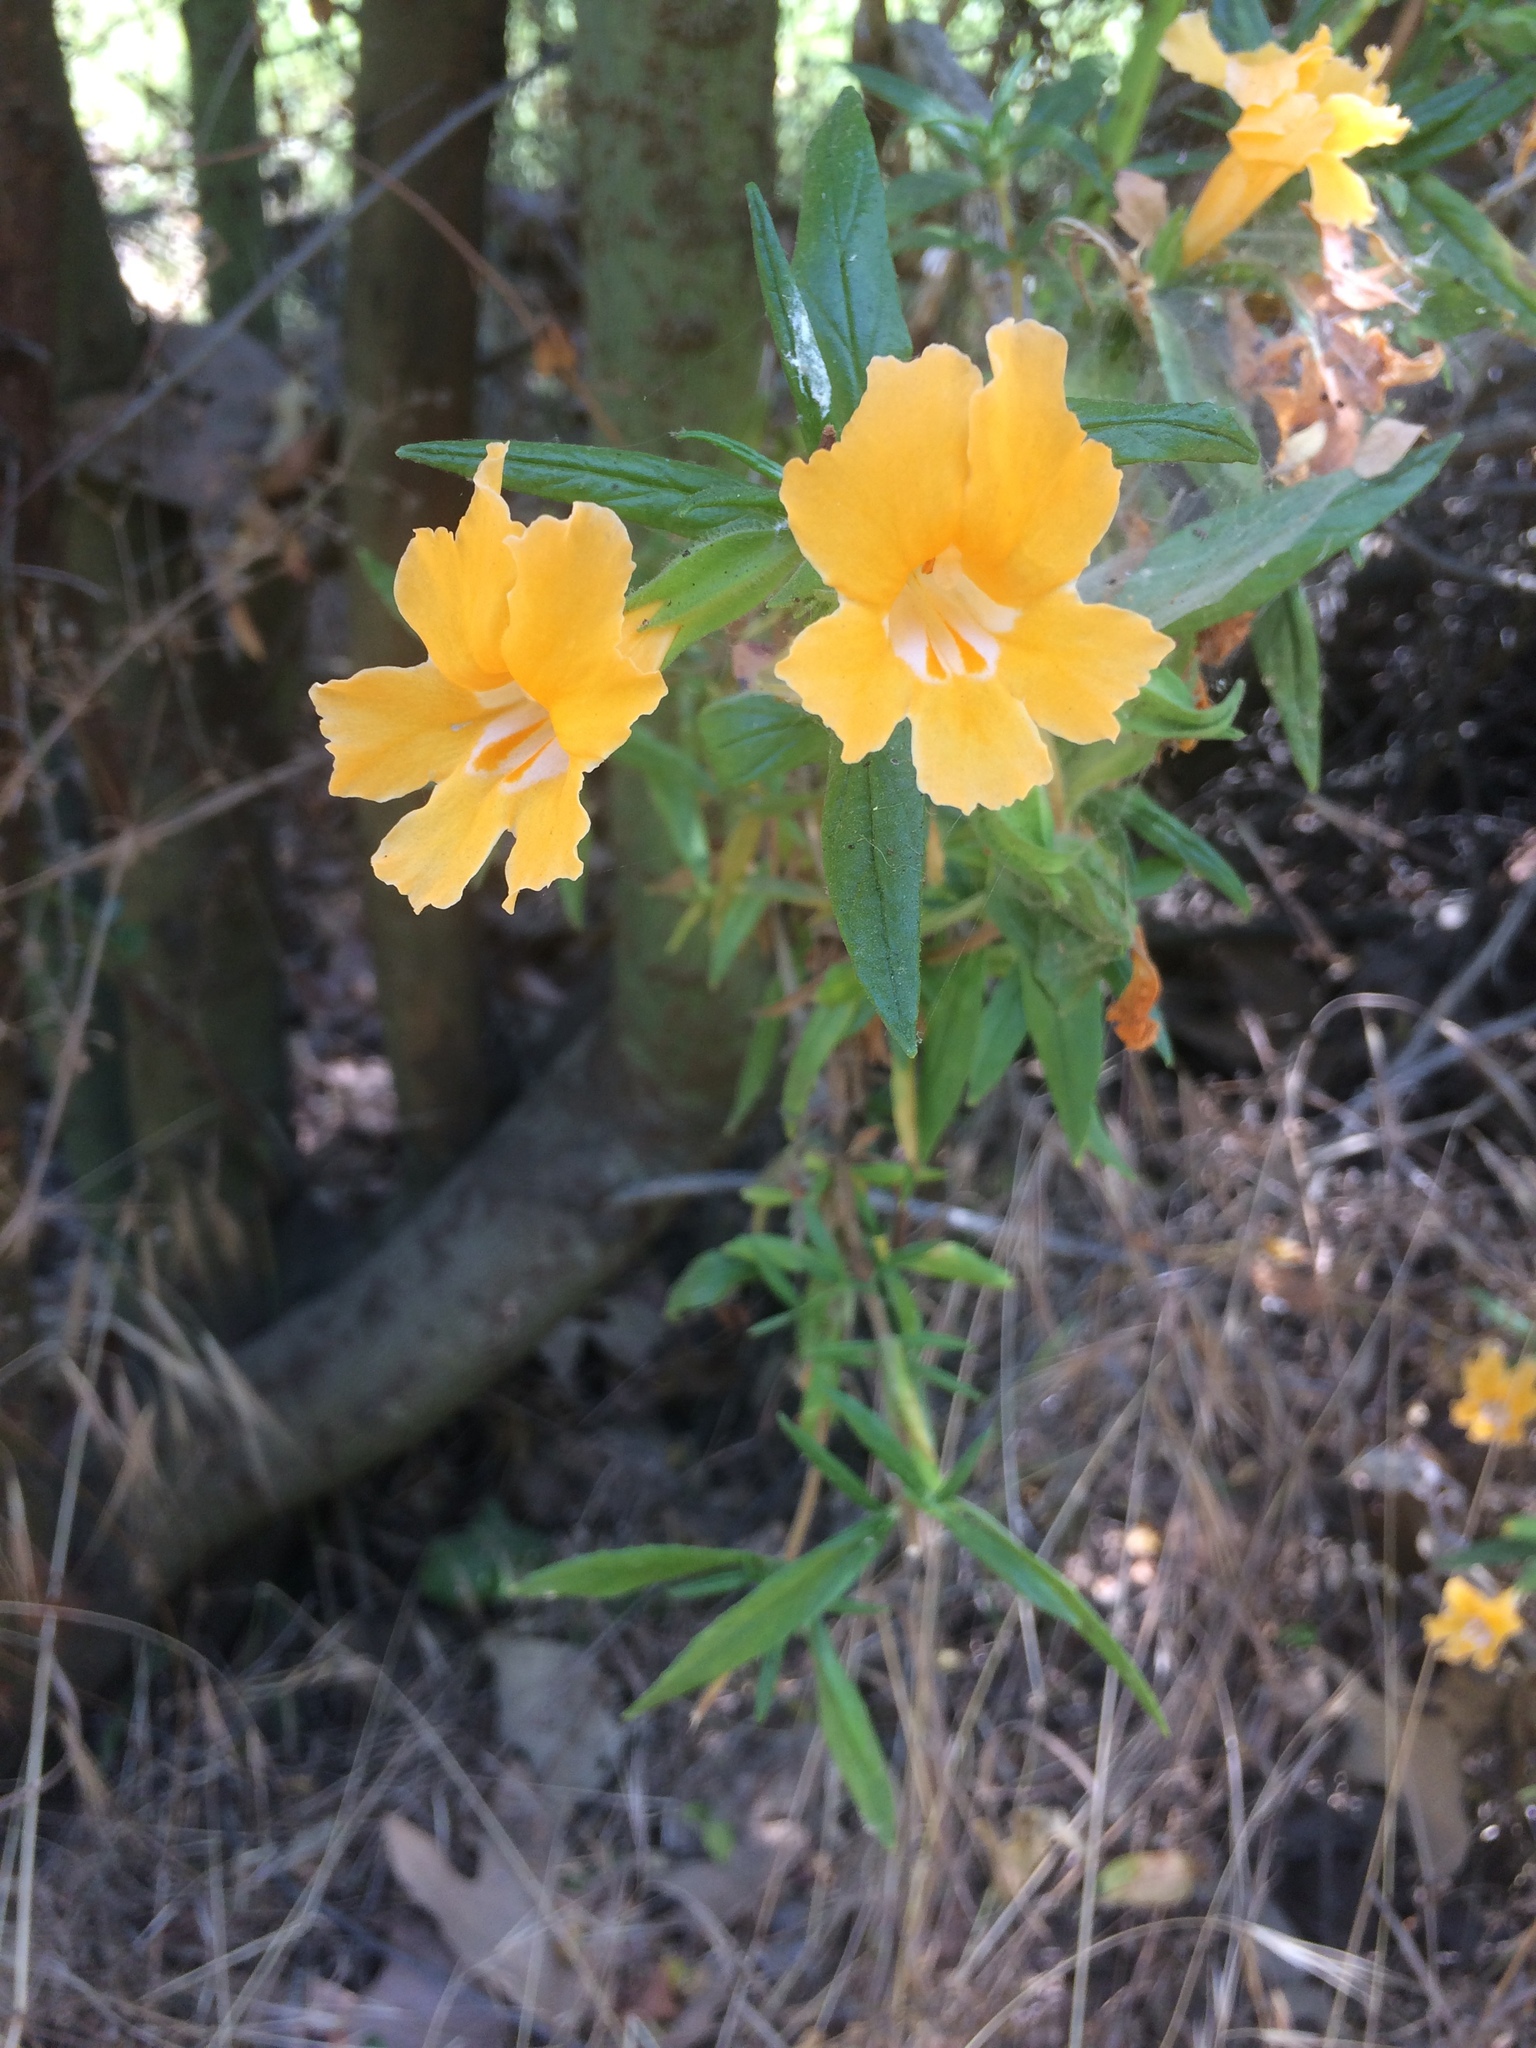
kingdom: Plantae
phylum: Tracheophyta
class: Magnoliopsida
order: Lamiales
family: Phrymaceae
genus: Diplacus
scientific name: Diplacus longiflorus
